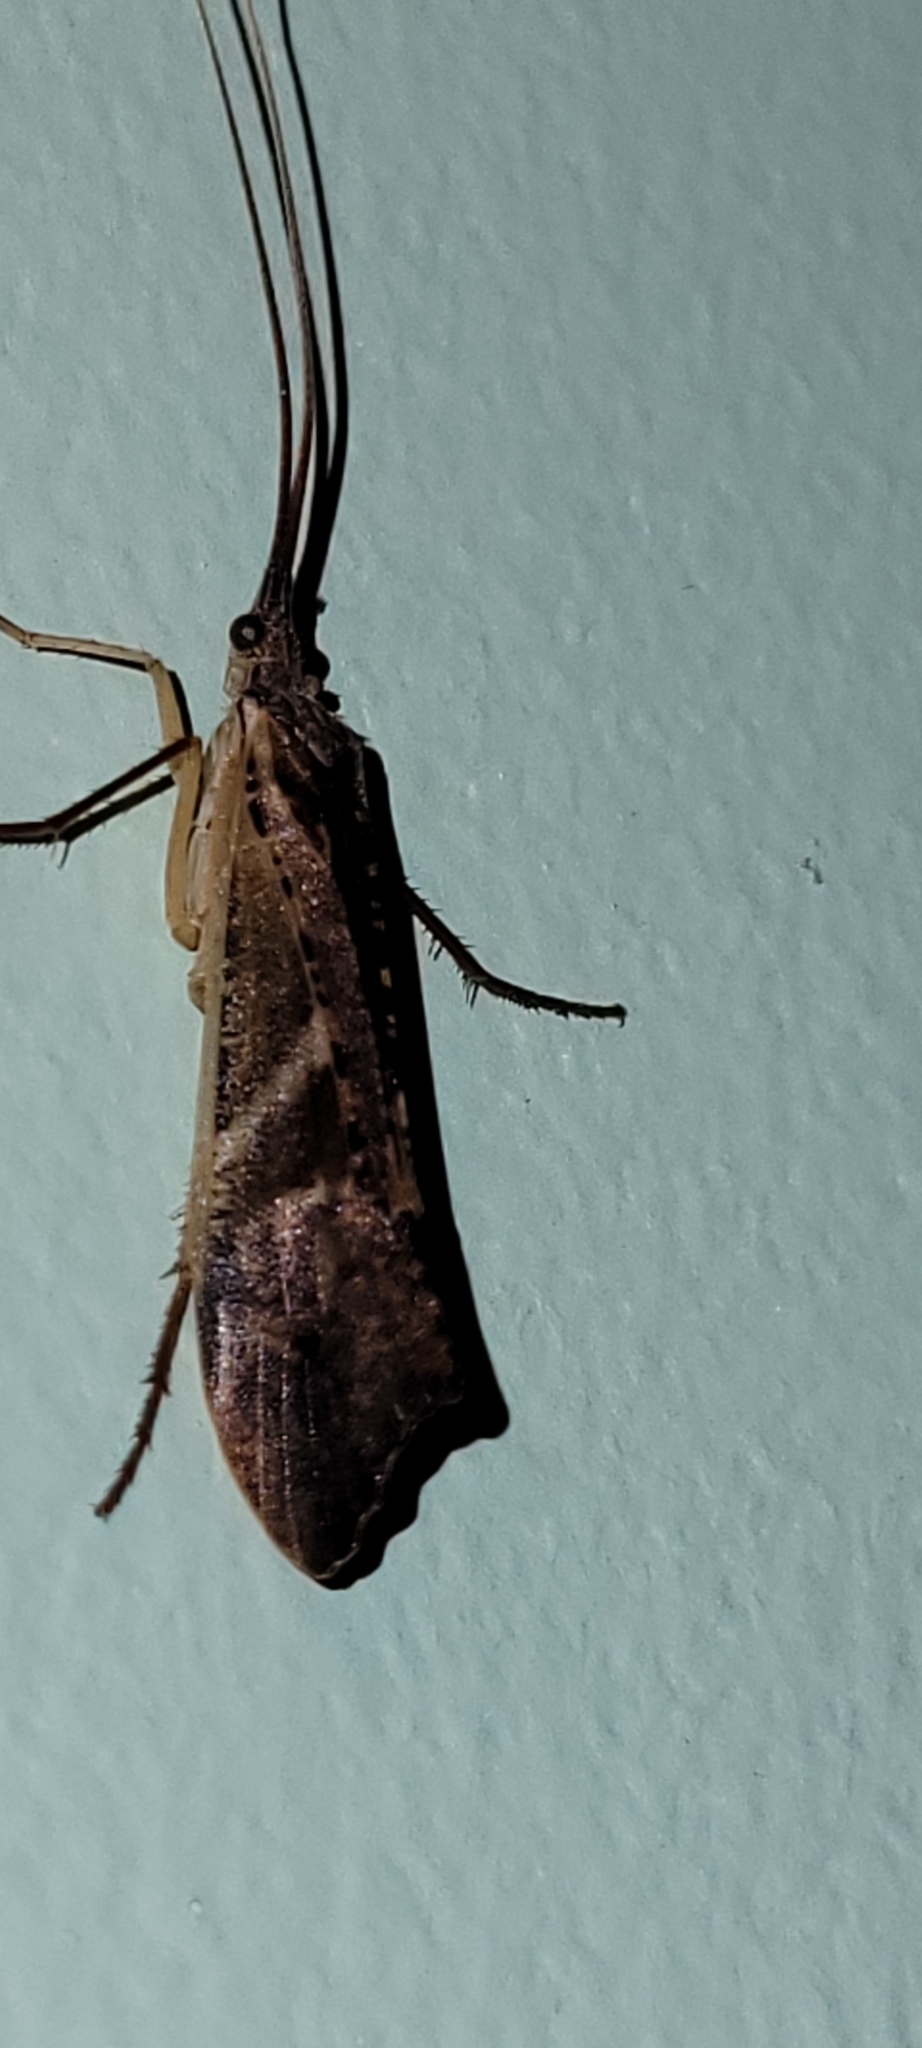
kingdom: Animalia
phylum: Arthropoda
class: Insecta
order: Trichoptera
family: Limnephilidae
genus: Nemotaulius
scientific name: Nemotaulius hostilis
